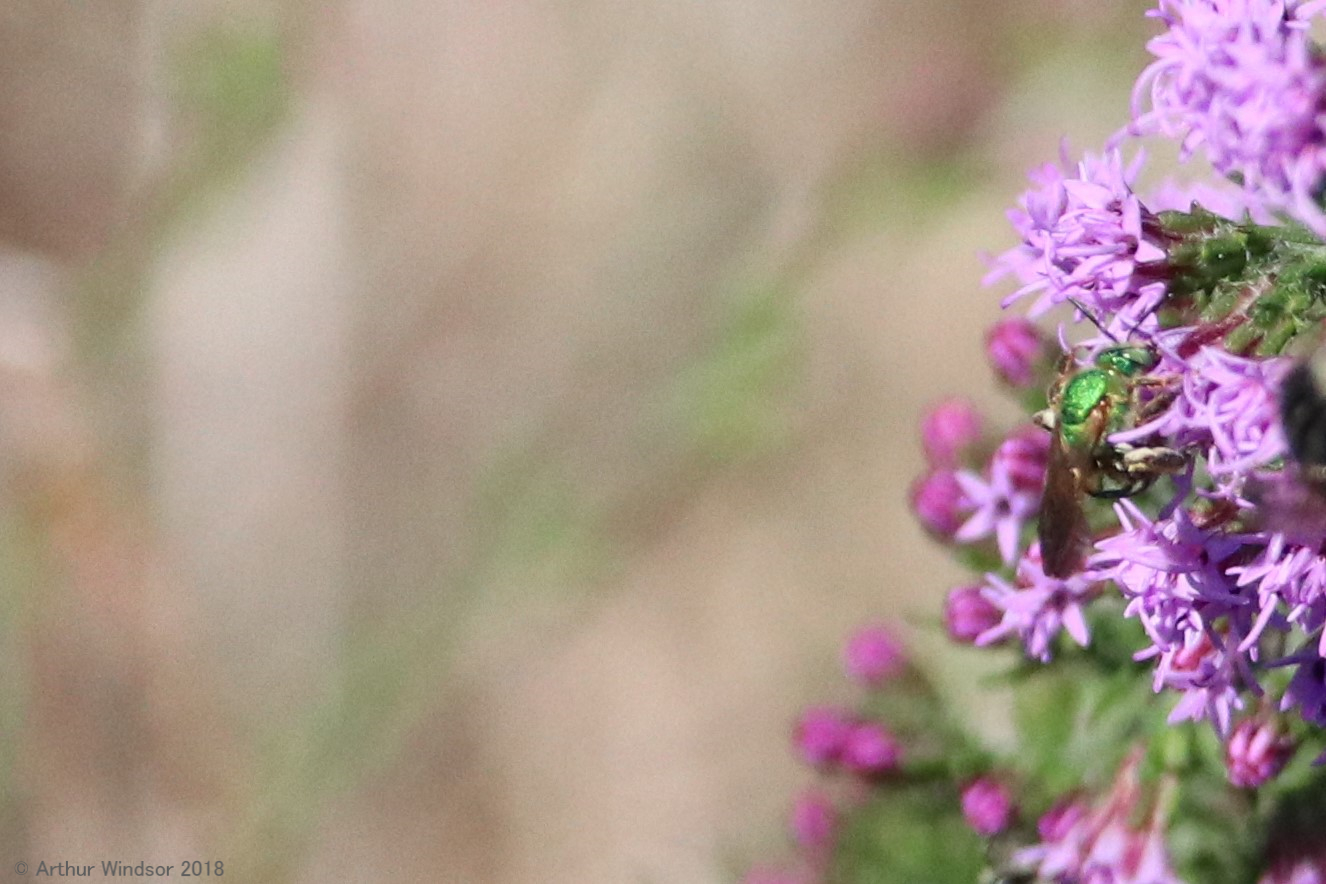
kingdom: Animalia
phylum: Arthropoda
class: Insecta
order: Hymenoptera
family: Halictidae
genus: Agapostemon
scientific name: Agapostemon splendens
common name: Brown-winged striped sweat bee
